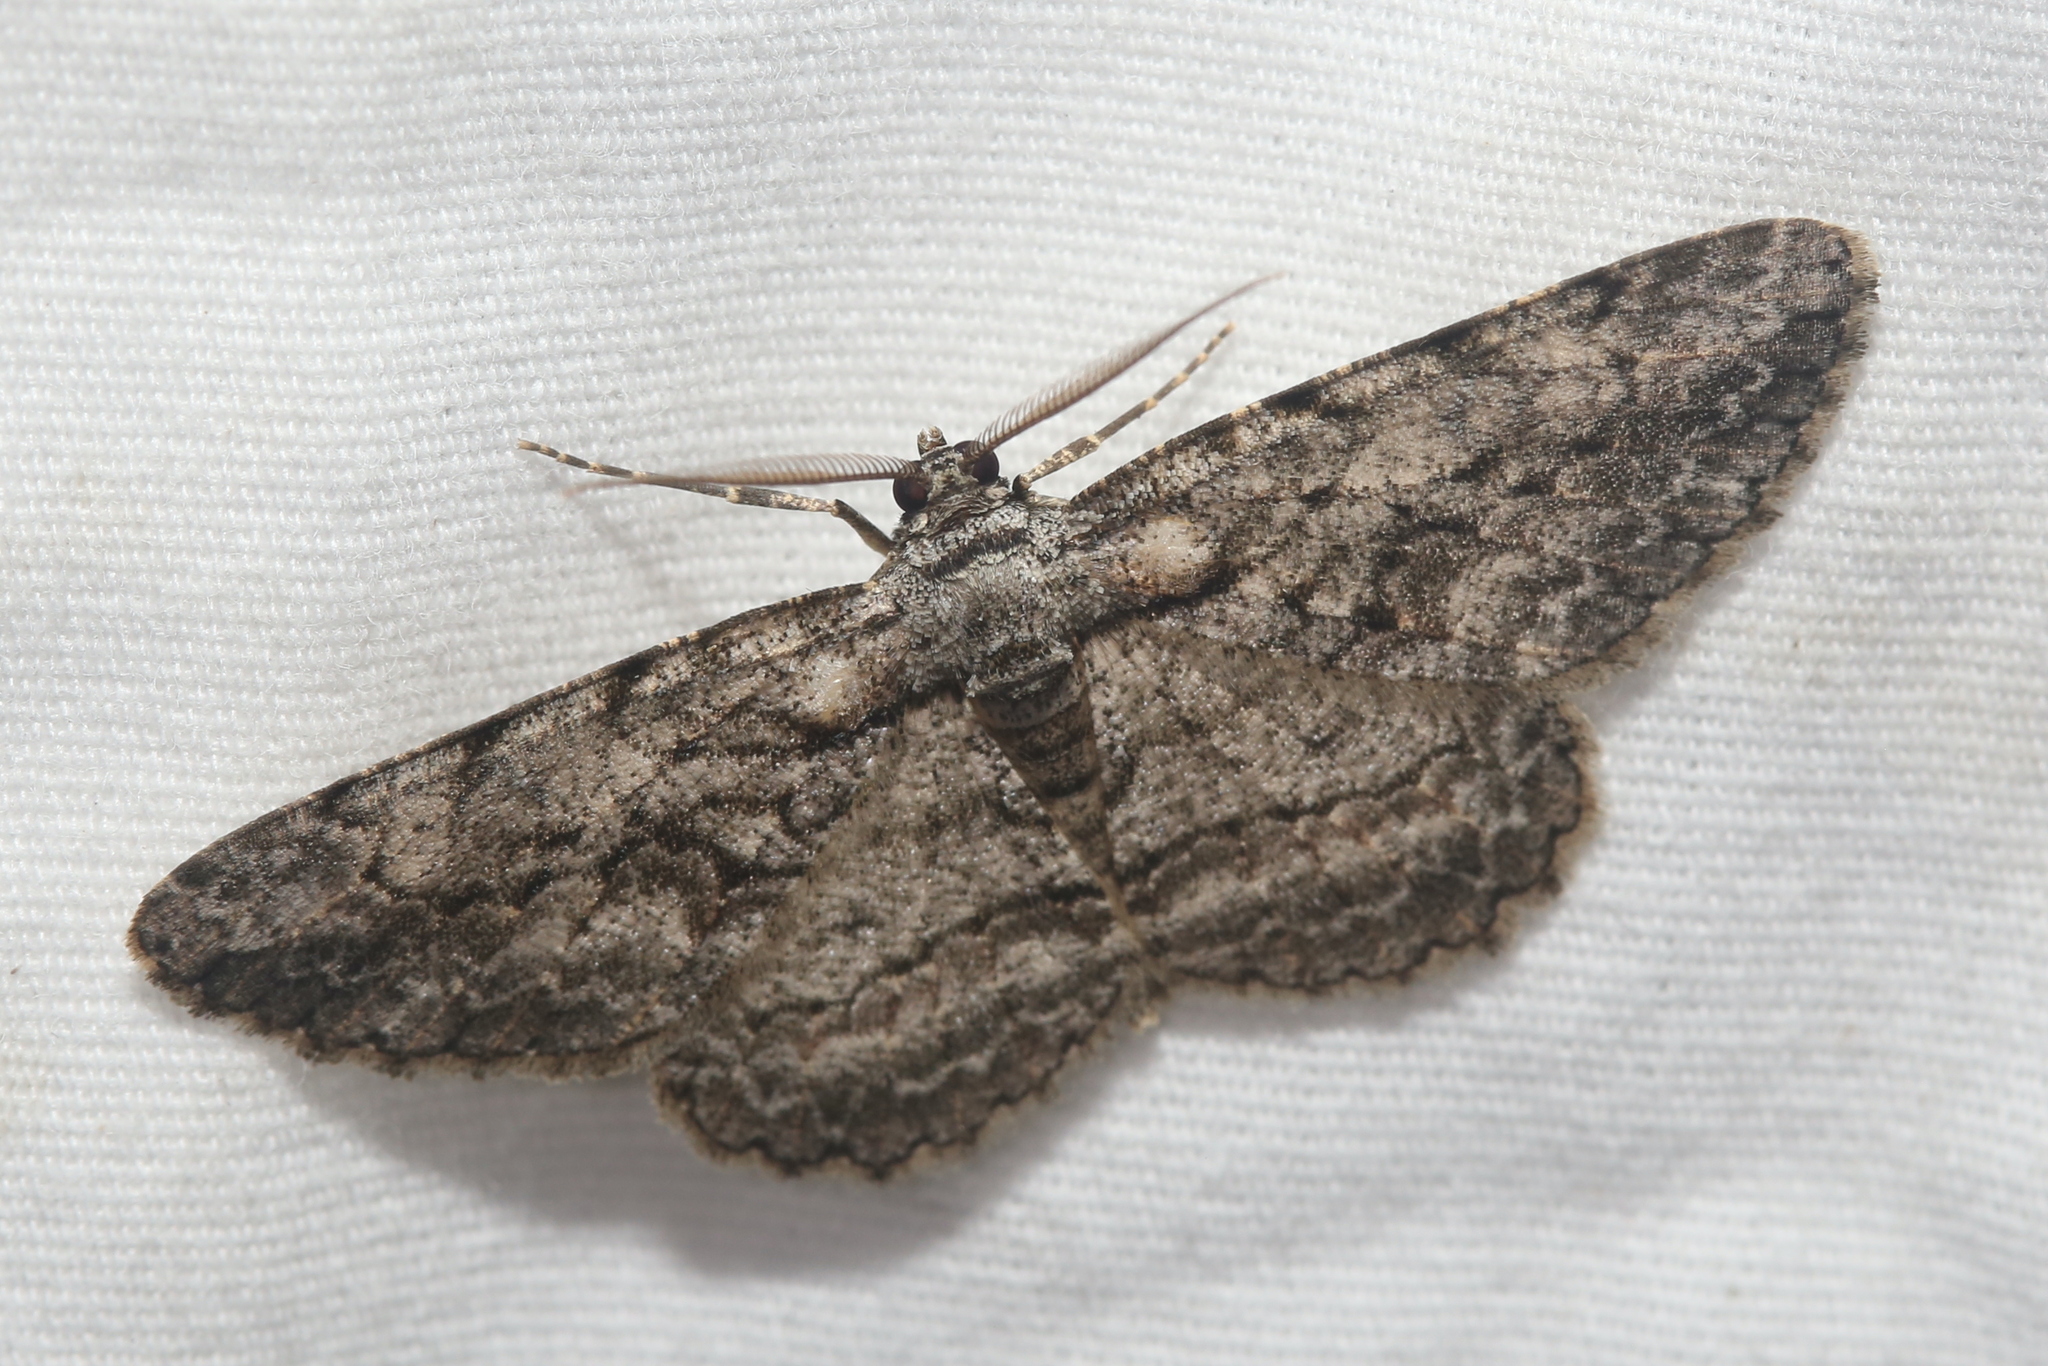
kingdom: Animalia
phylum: Arthropoda
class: Insecta
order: Lepidoptera
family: Geometridae
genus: Anavitrinella
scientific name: Anavitrinella pampinaria
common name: Common gray
